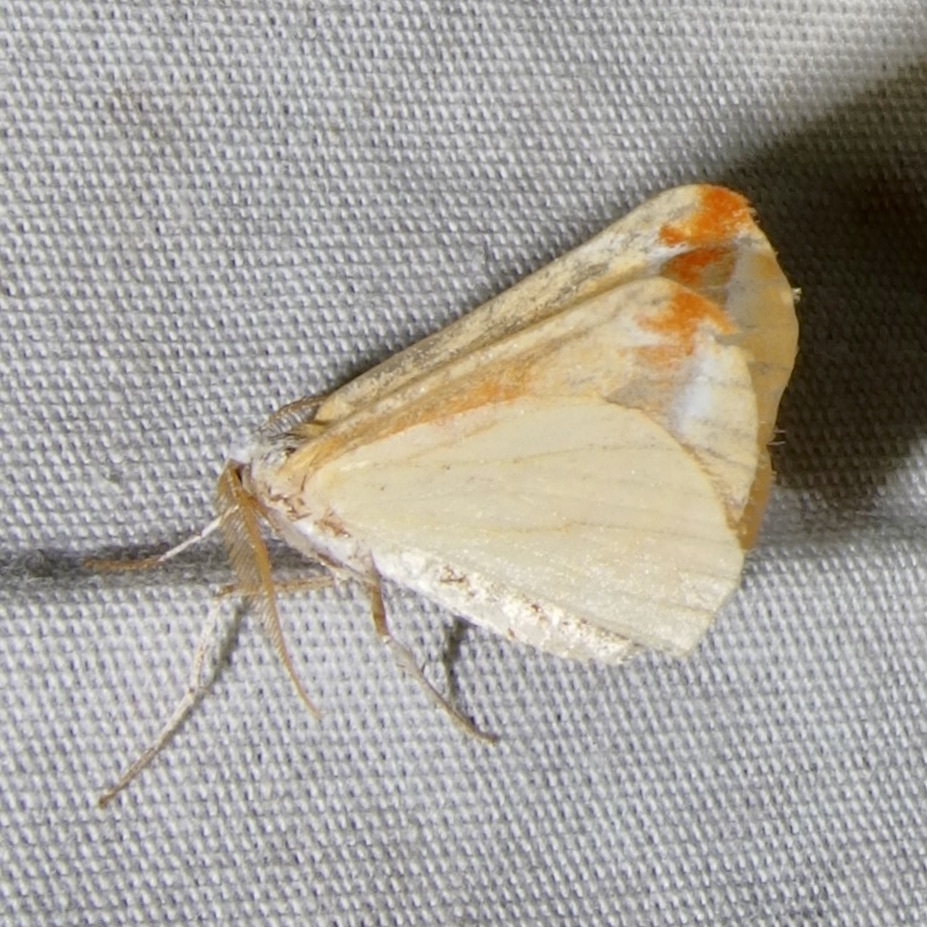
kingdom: Animalia
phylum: Arthropoda
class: Insecta
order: Lepidoptera
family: Geometridae
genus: Melemaea
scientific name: Melemaea virgata
